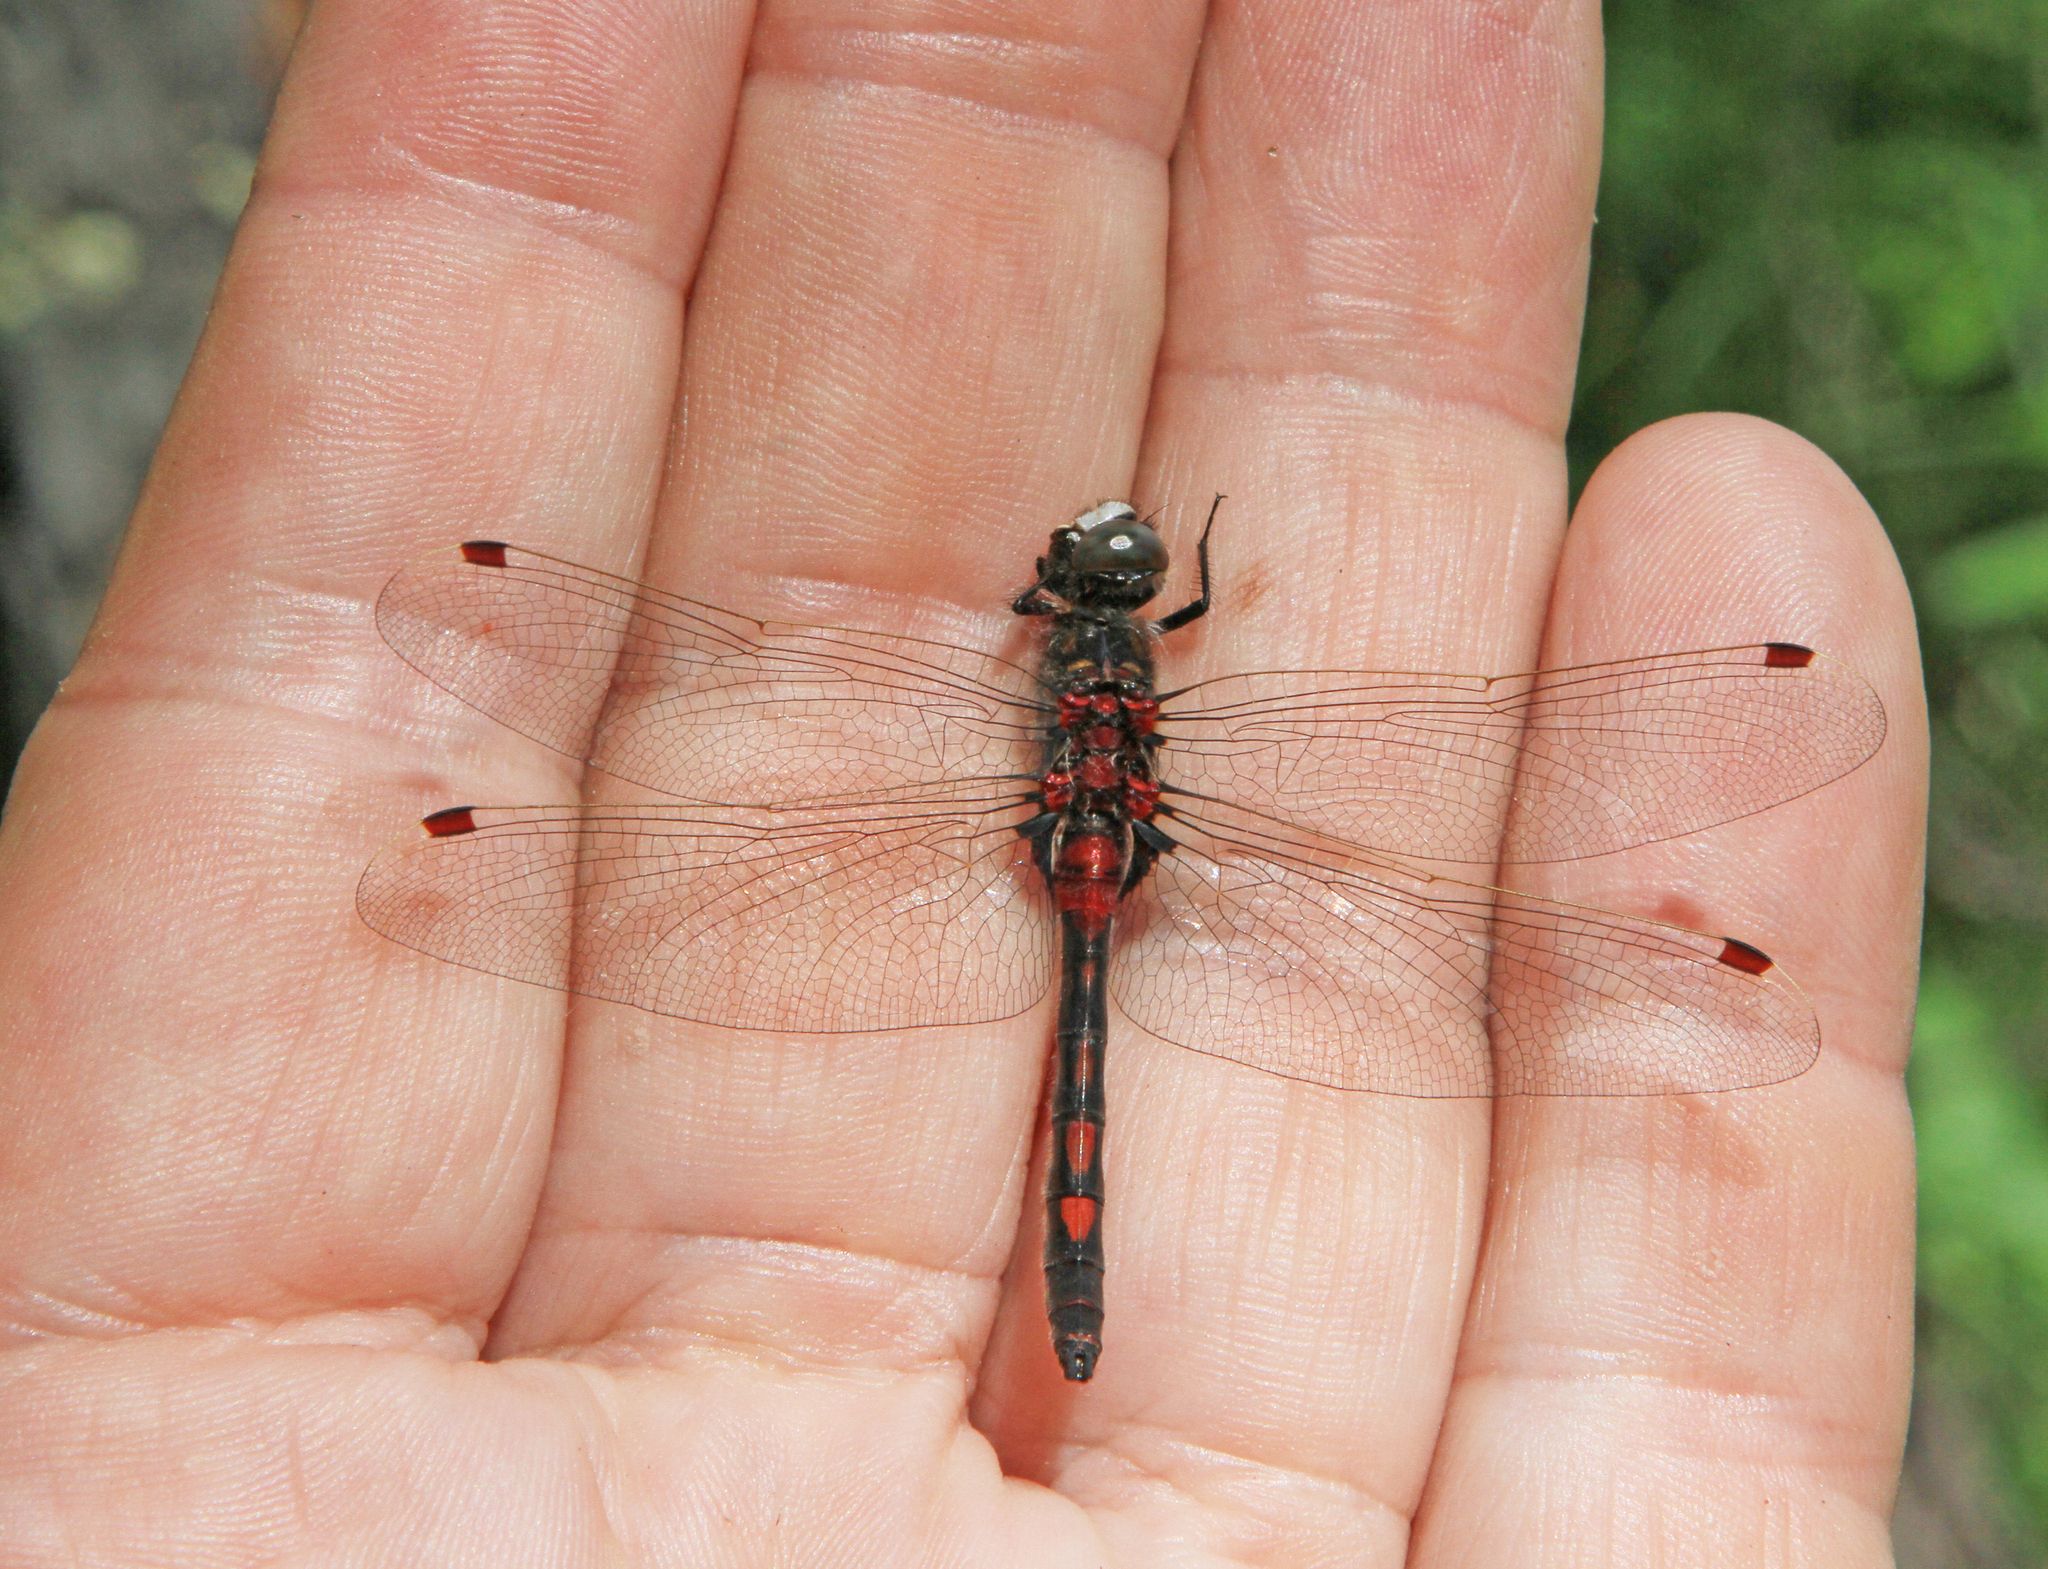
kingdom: Animalia
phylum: Arthropoda
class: Insecta
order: Odonata
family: Libellulidae
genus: Leucorrhinia
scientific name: Leucorrhinia rubicunda
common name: Ruby whiteface
